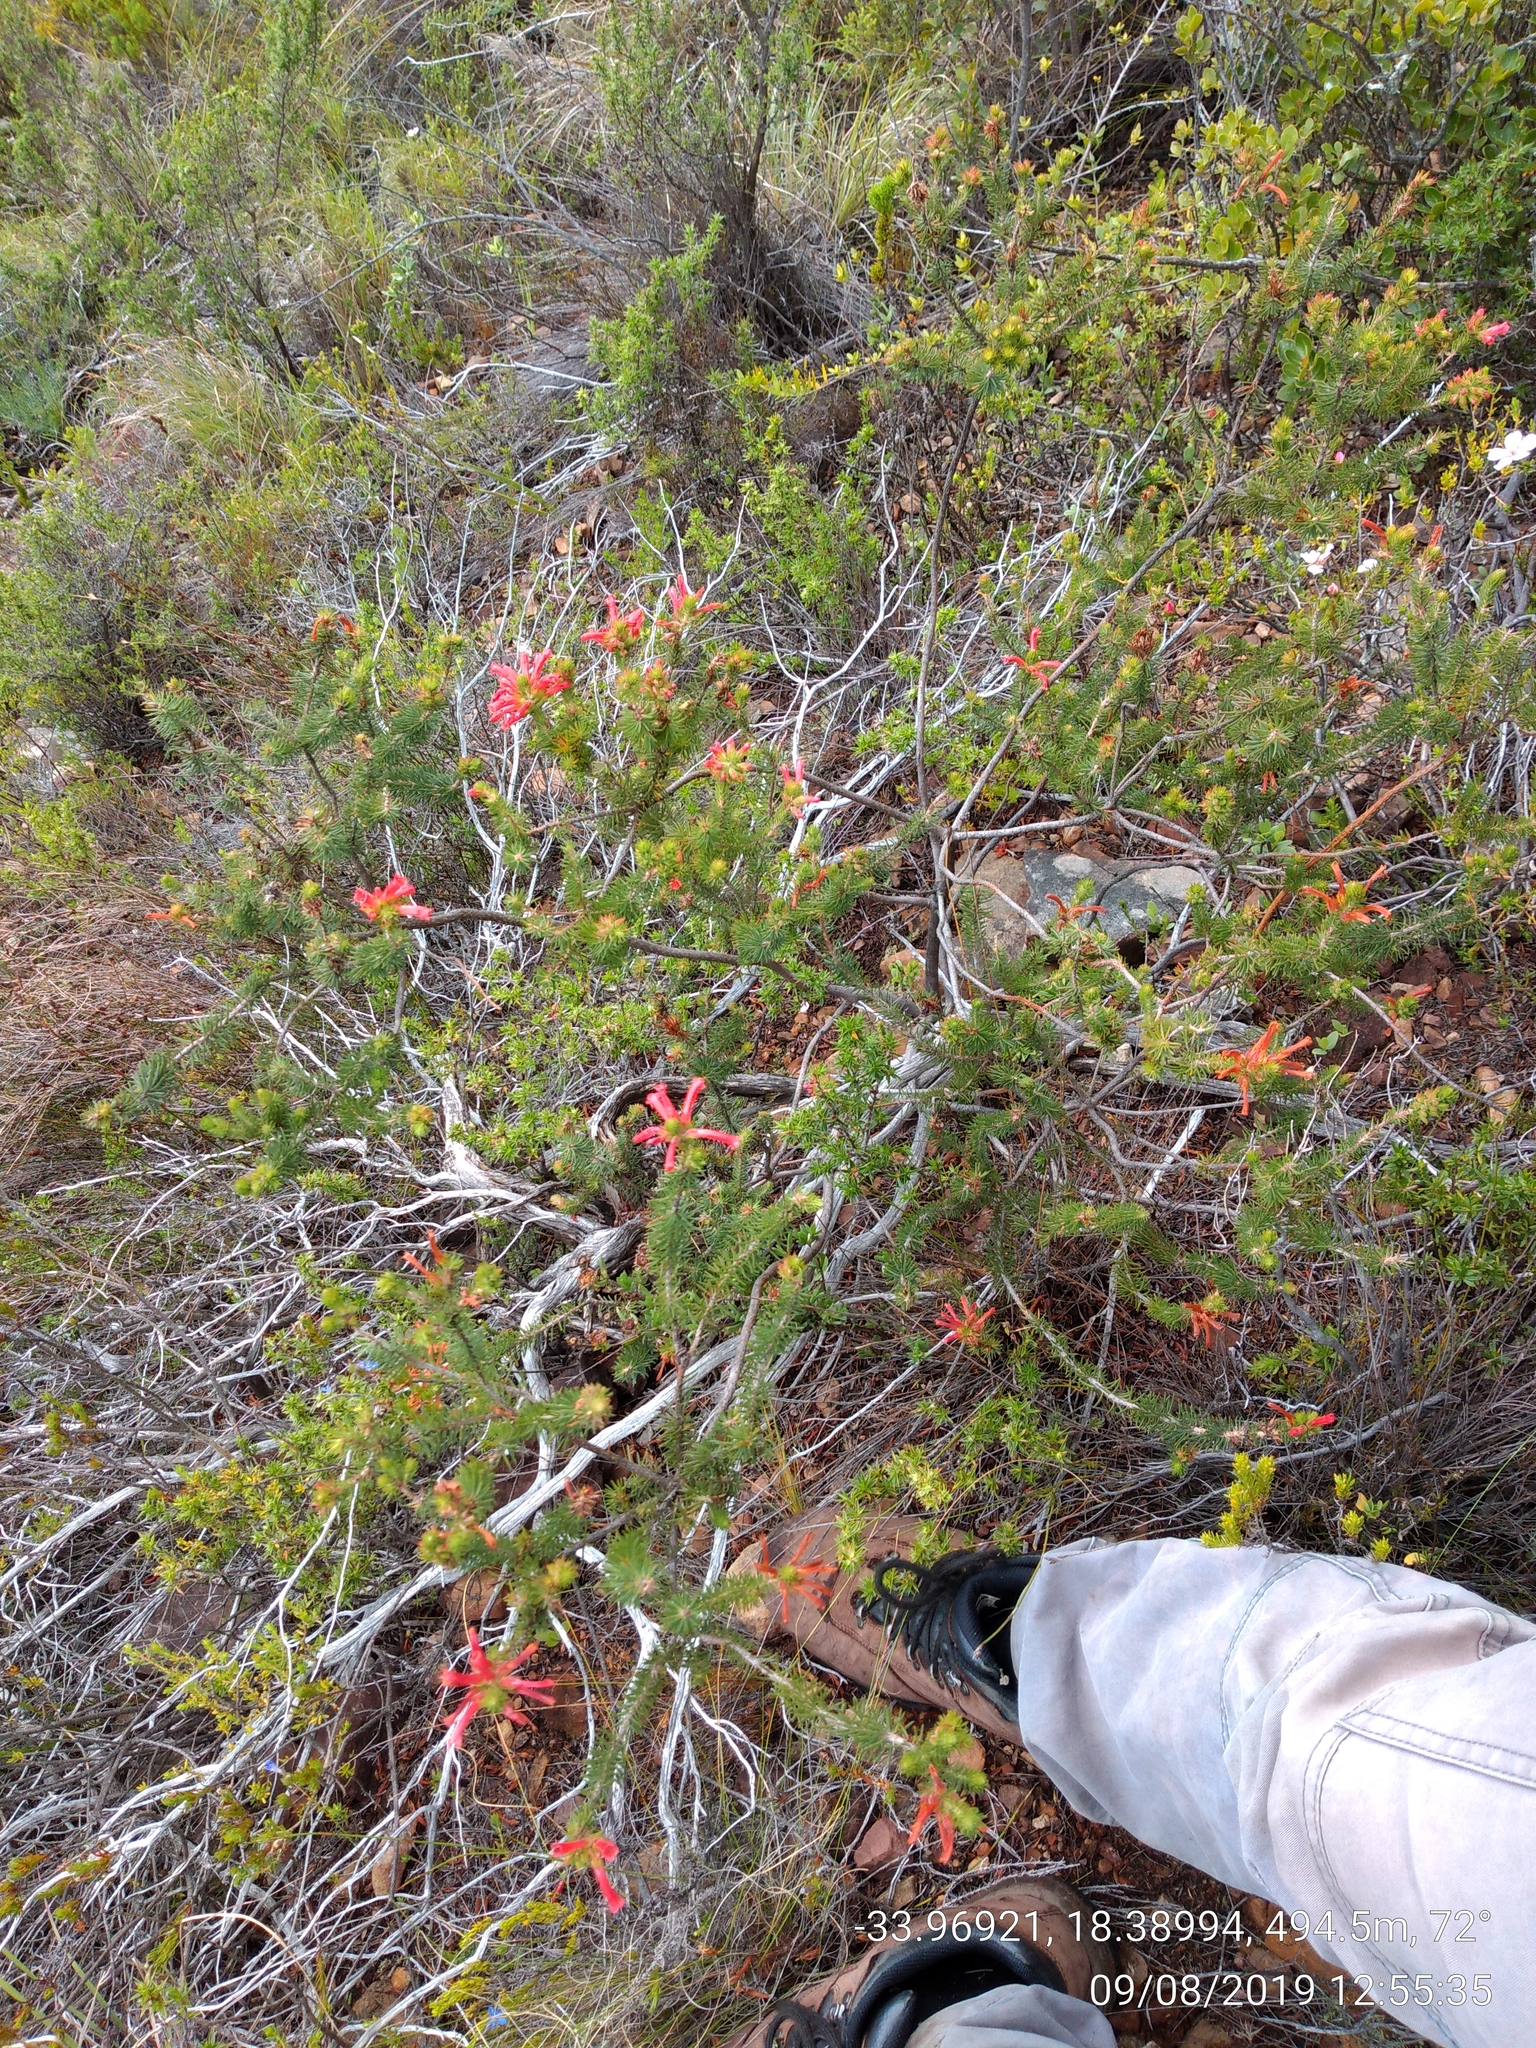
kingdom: Plantae
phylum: Tracheophyta
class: Magnoliopsida
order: Ericales
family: Ericaceae
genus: Erica
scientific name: Erica abietina
